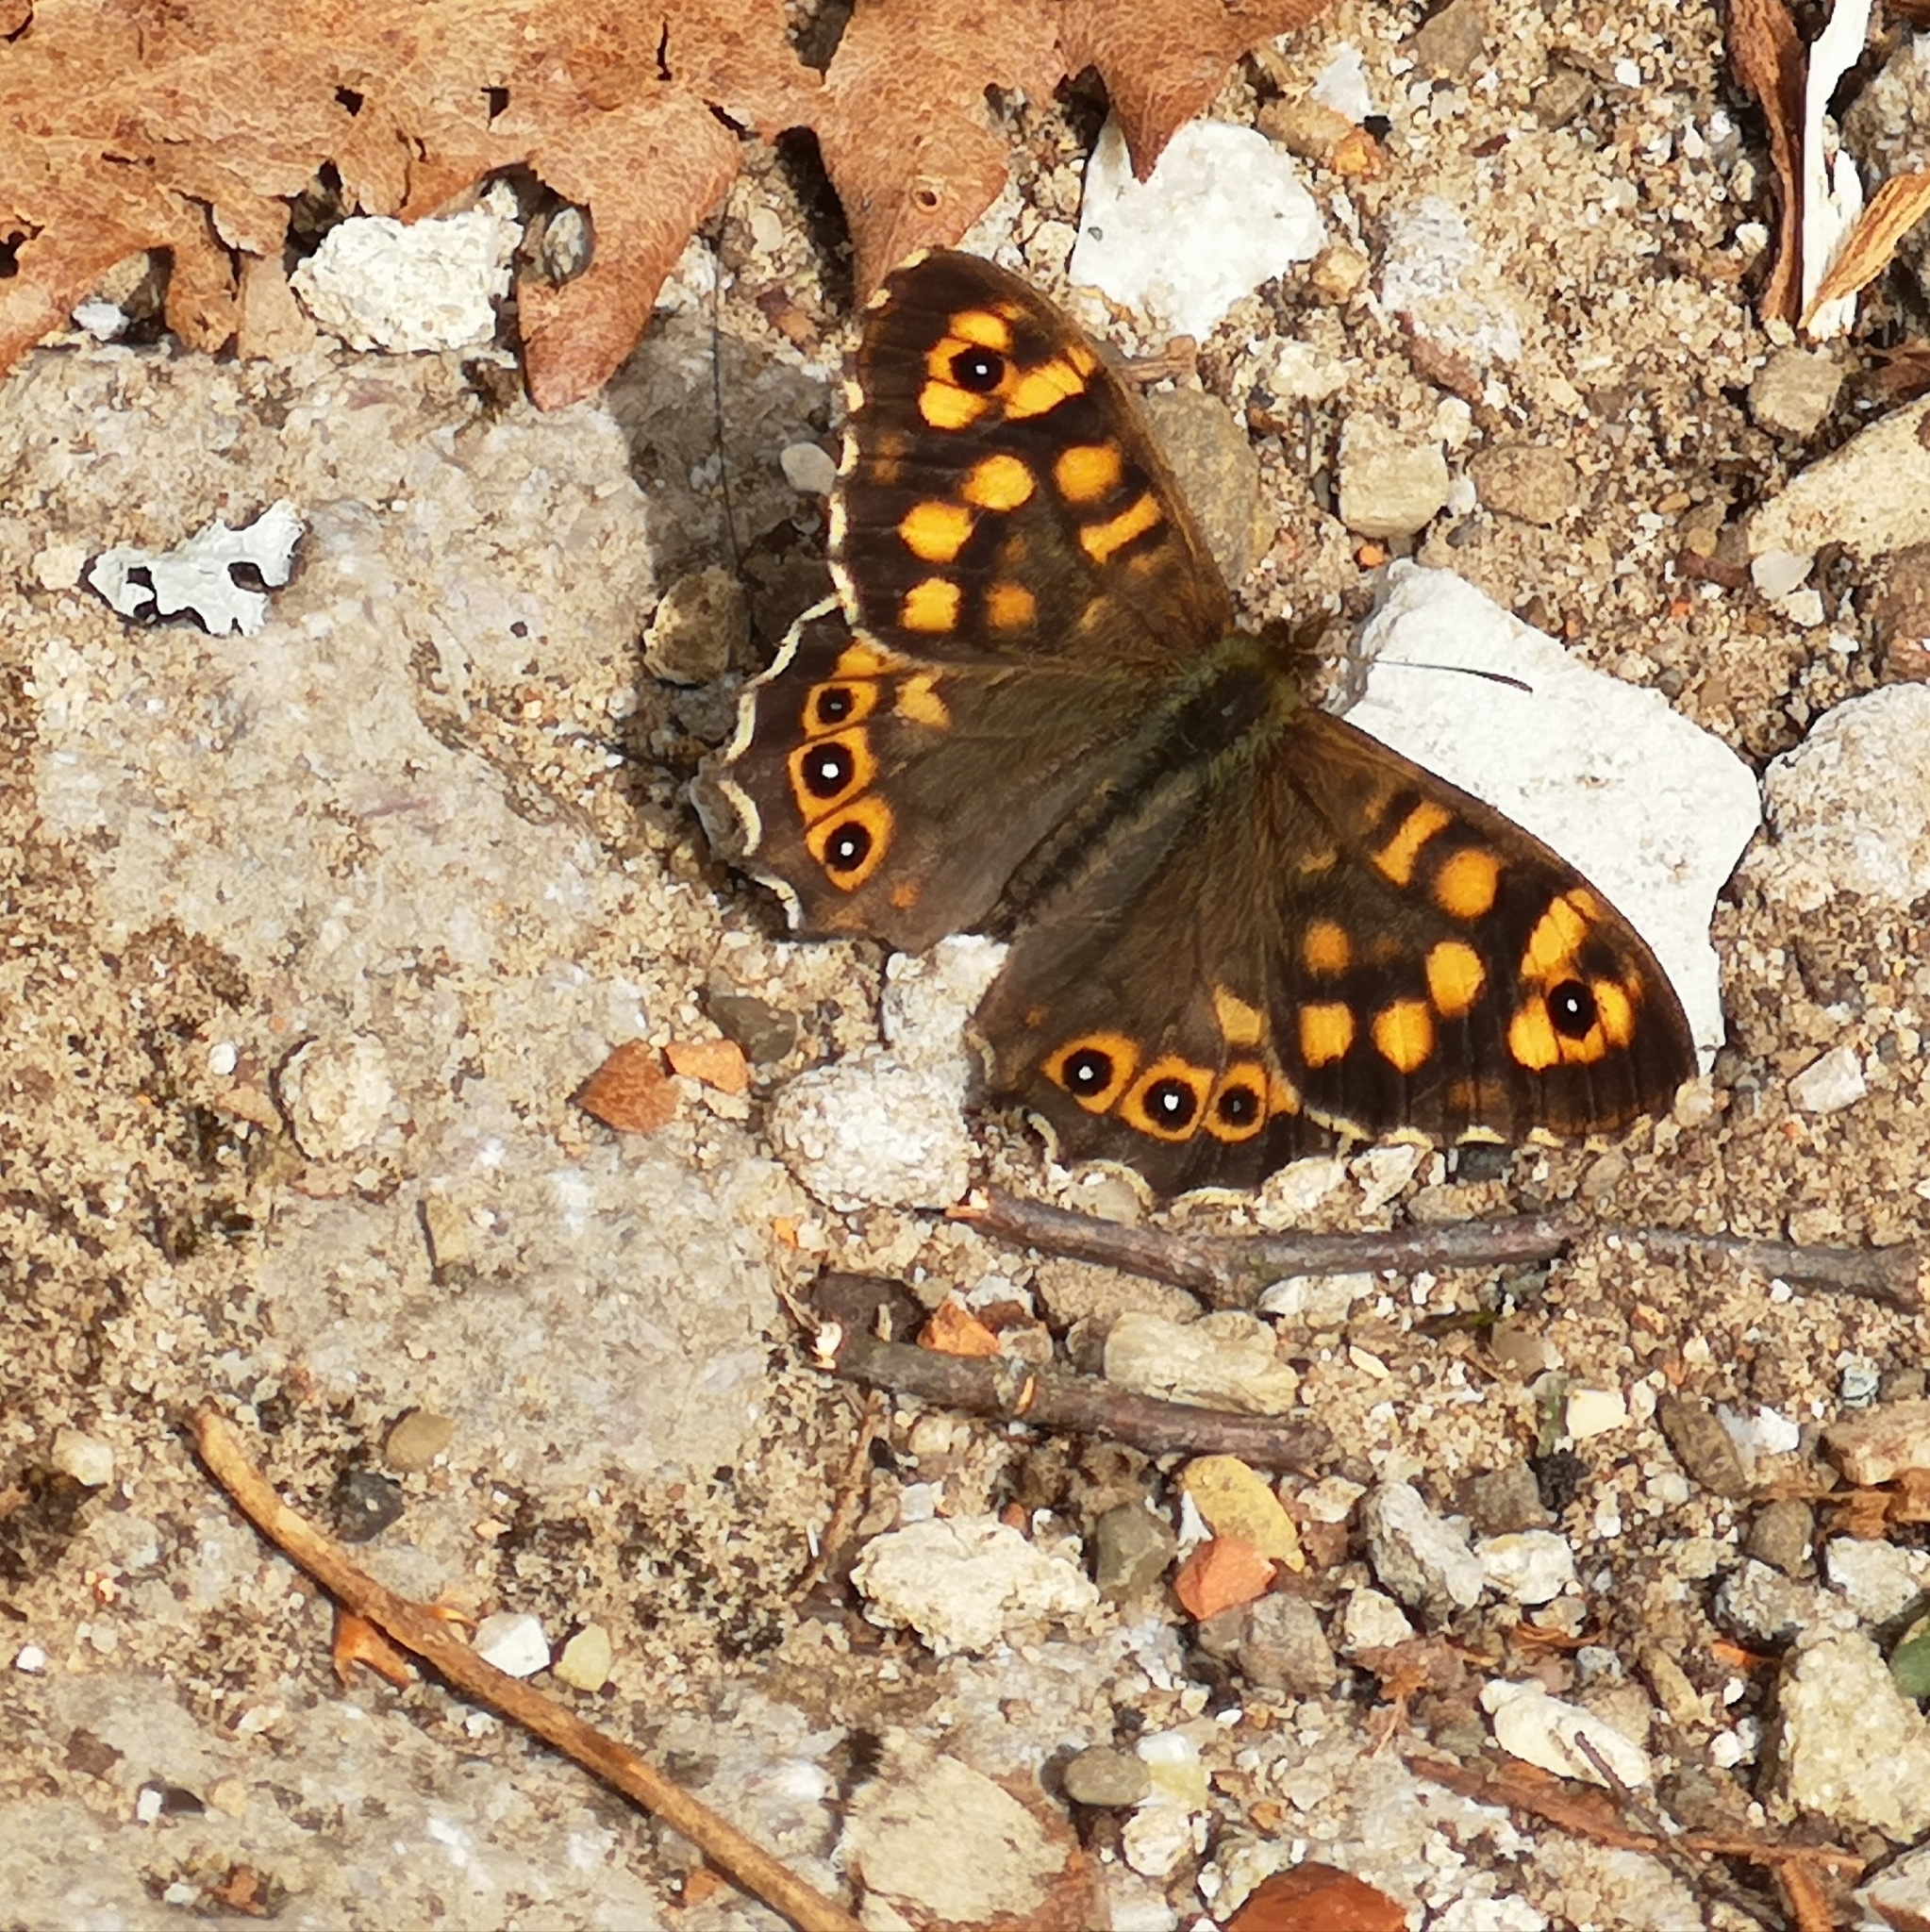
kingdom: Animalia
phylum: Arthropoda
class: Insecta
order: Lepidoptera
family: Nymphalidae
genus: Pararge
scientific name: Pararge aegeria
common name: Speckled wood
